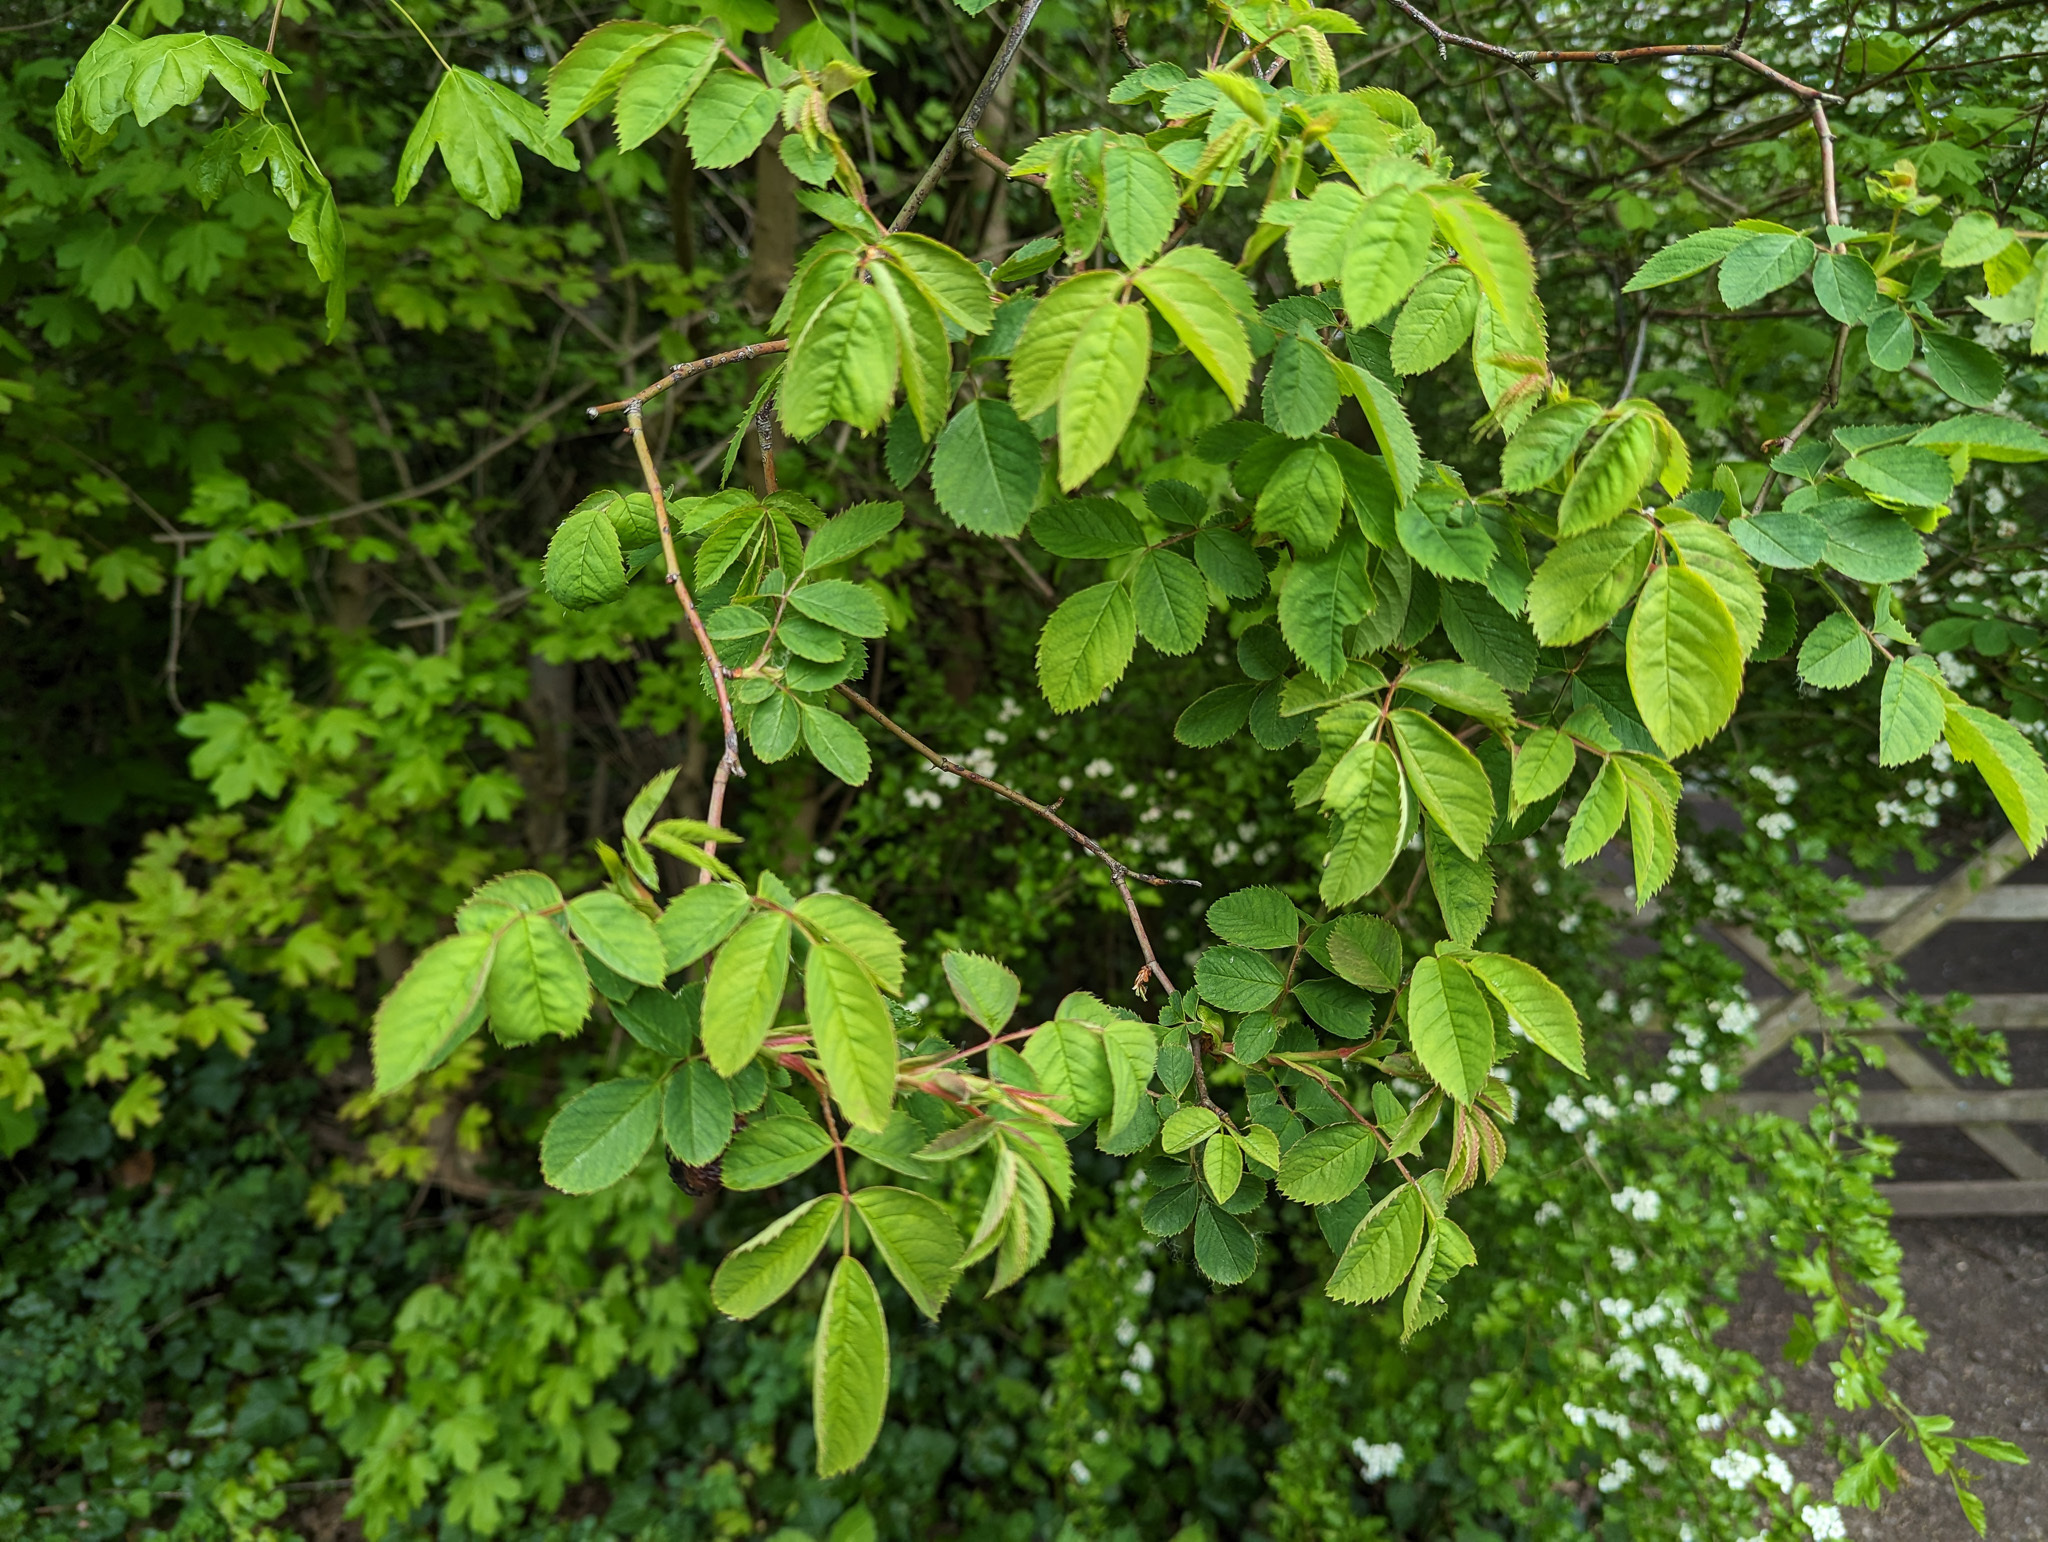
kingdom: Plantae
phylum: Tracheophyta
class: Magnoliopsida
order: Rosales
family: Rosaceae
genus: Rosa
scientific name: Rosa canina
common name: Dog rose
